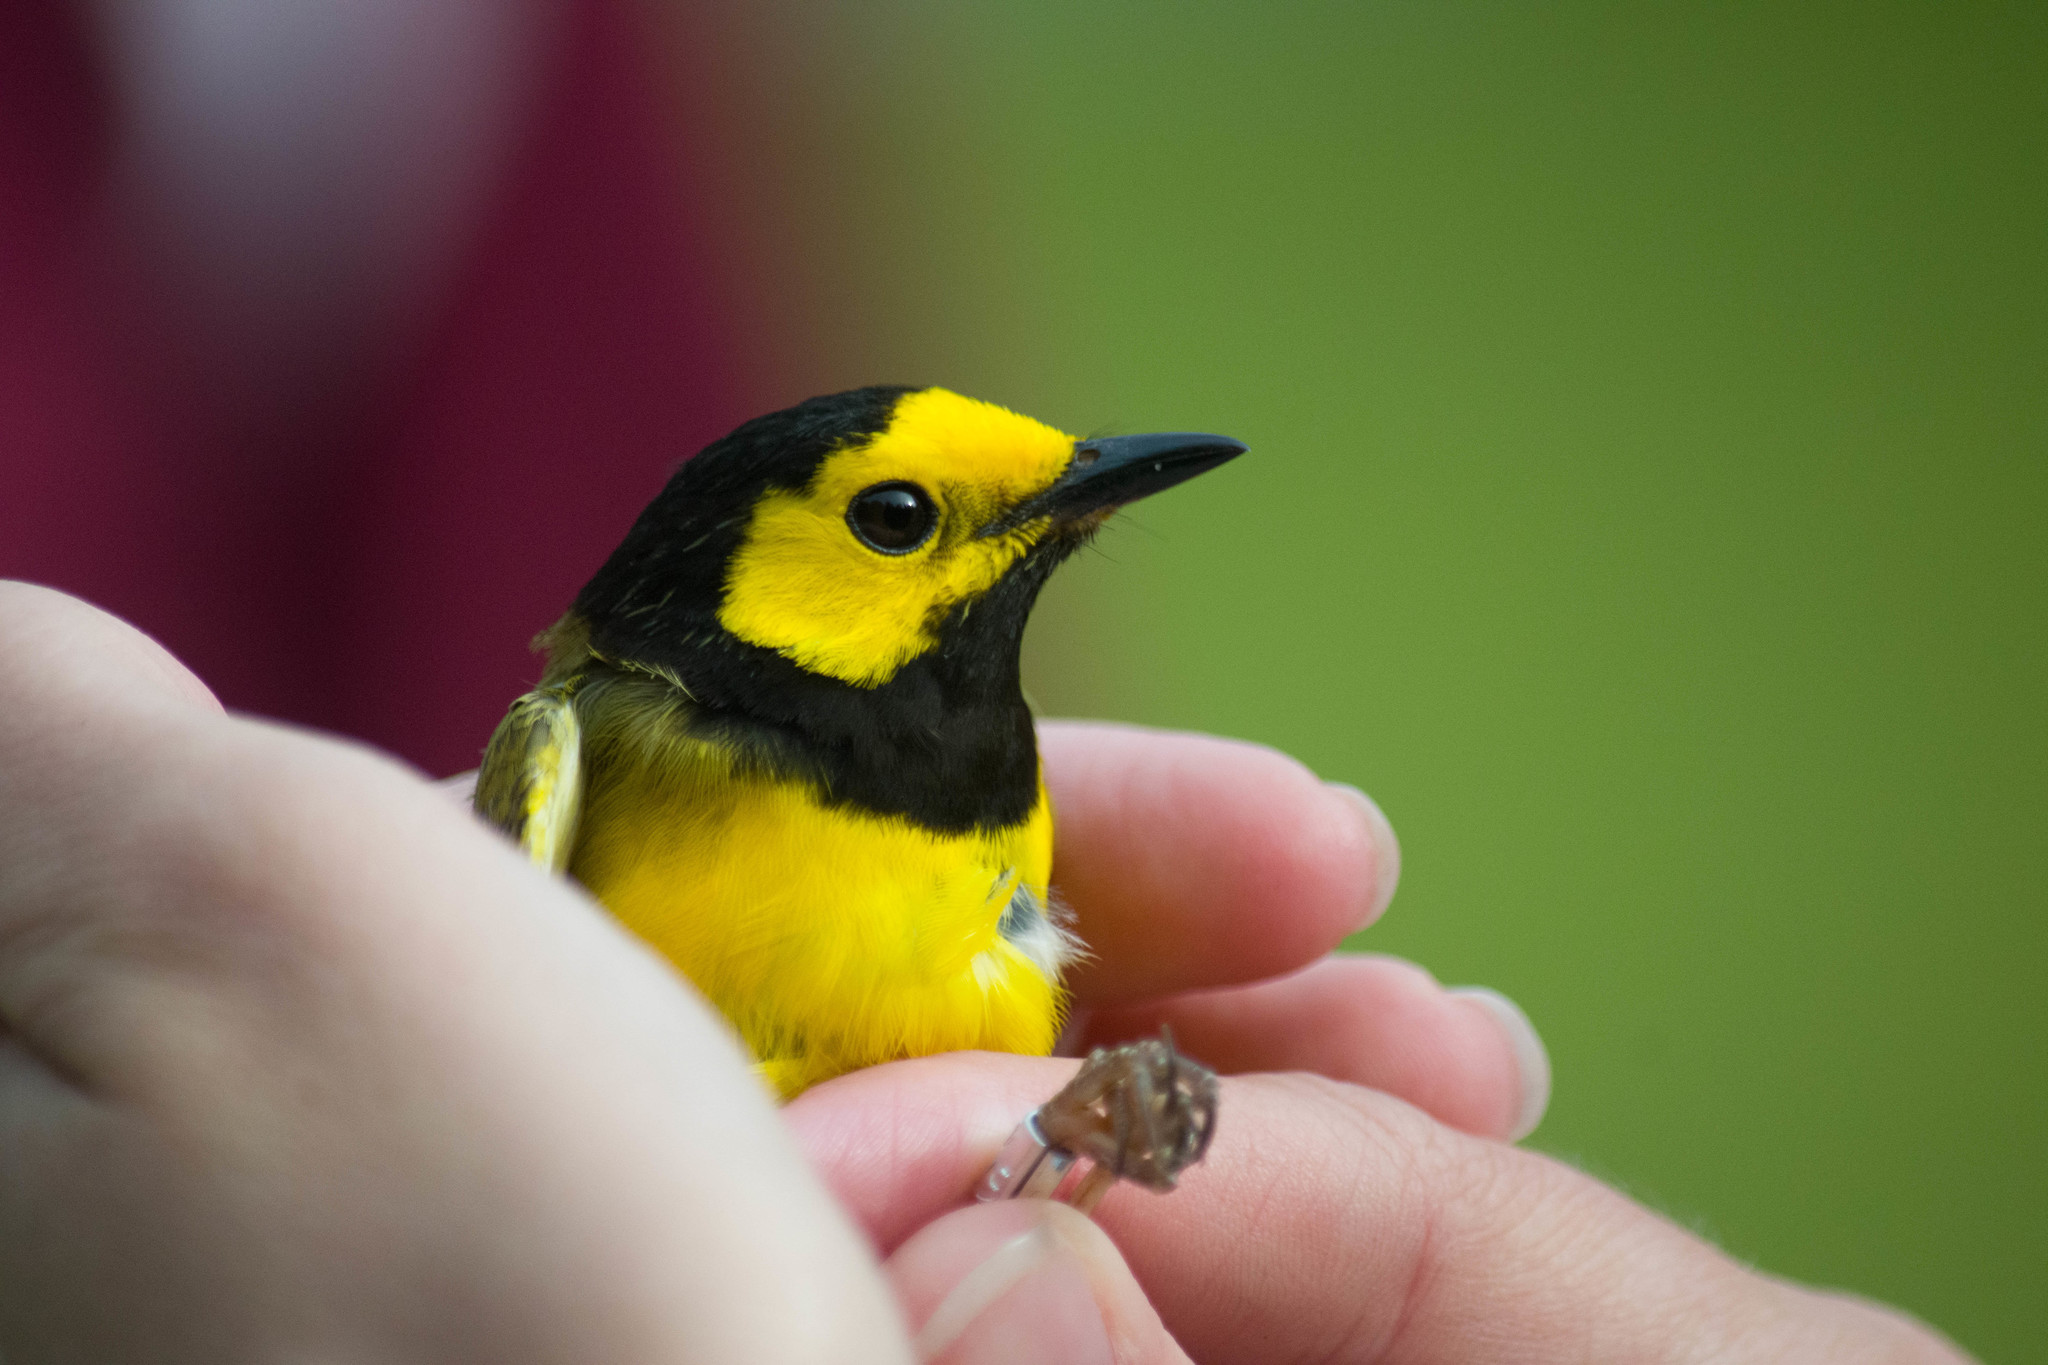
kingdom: Animalia
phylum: Chordata
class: Aves
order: Passeriformes
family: Parulidae
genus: Setophaga
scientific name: Setophaga citrina
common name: Hooded warbler
